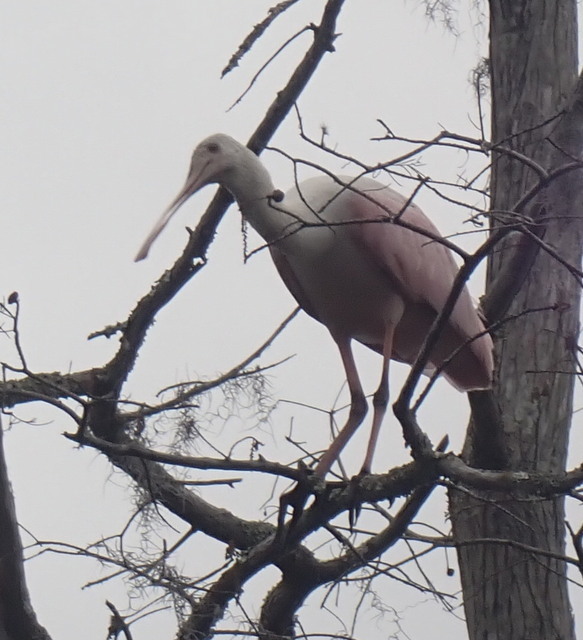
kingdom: Animalia
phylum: Chordata
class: Aves
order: Pelecaniformes
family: Threskiornithidae
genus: Platalea
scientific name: Platalea ajaja
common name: Roseate spoonbill
